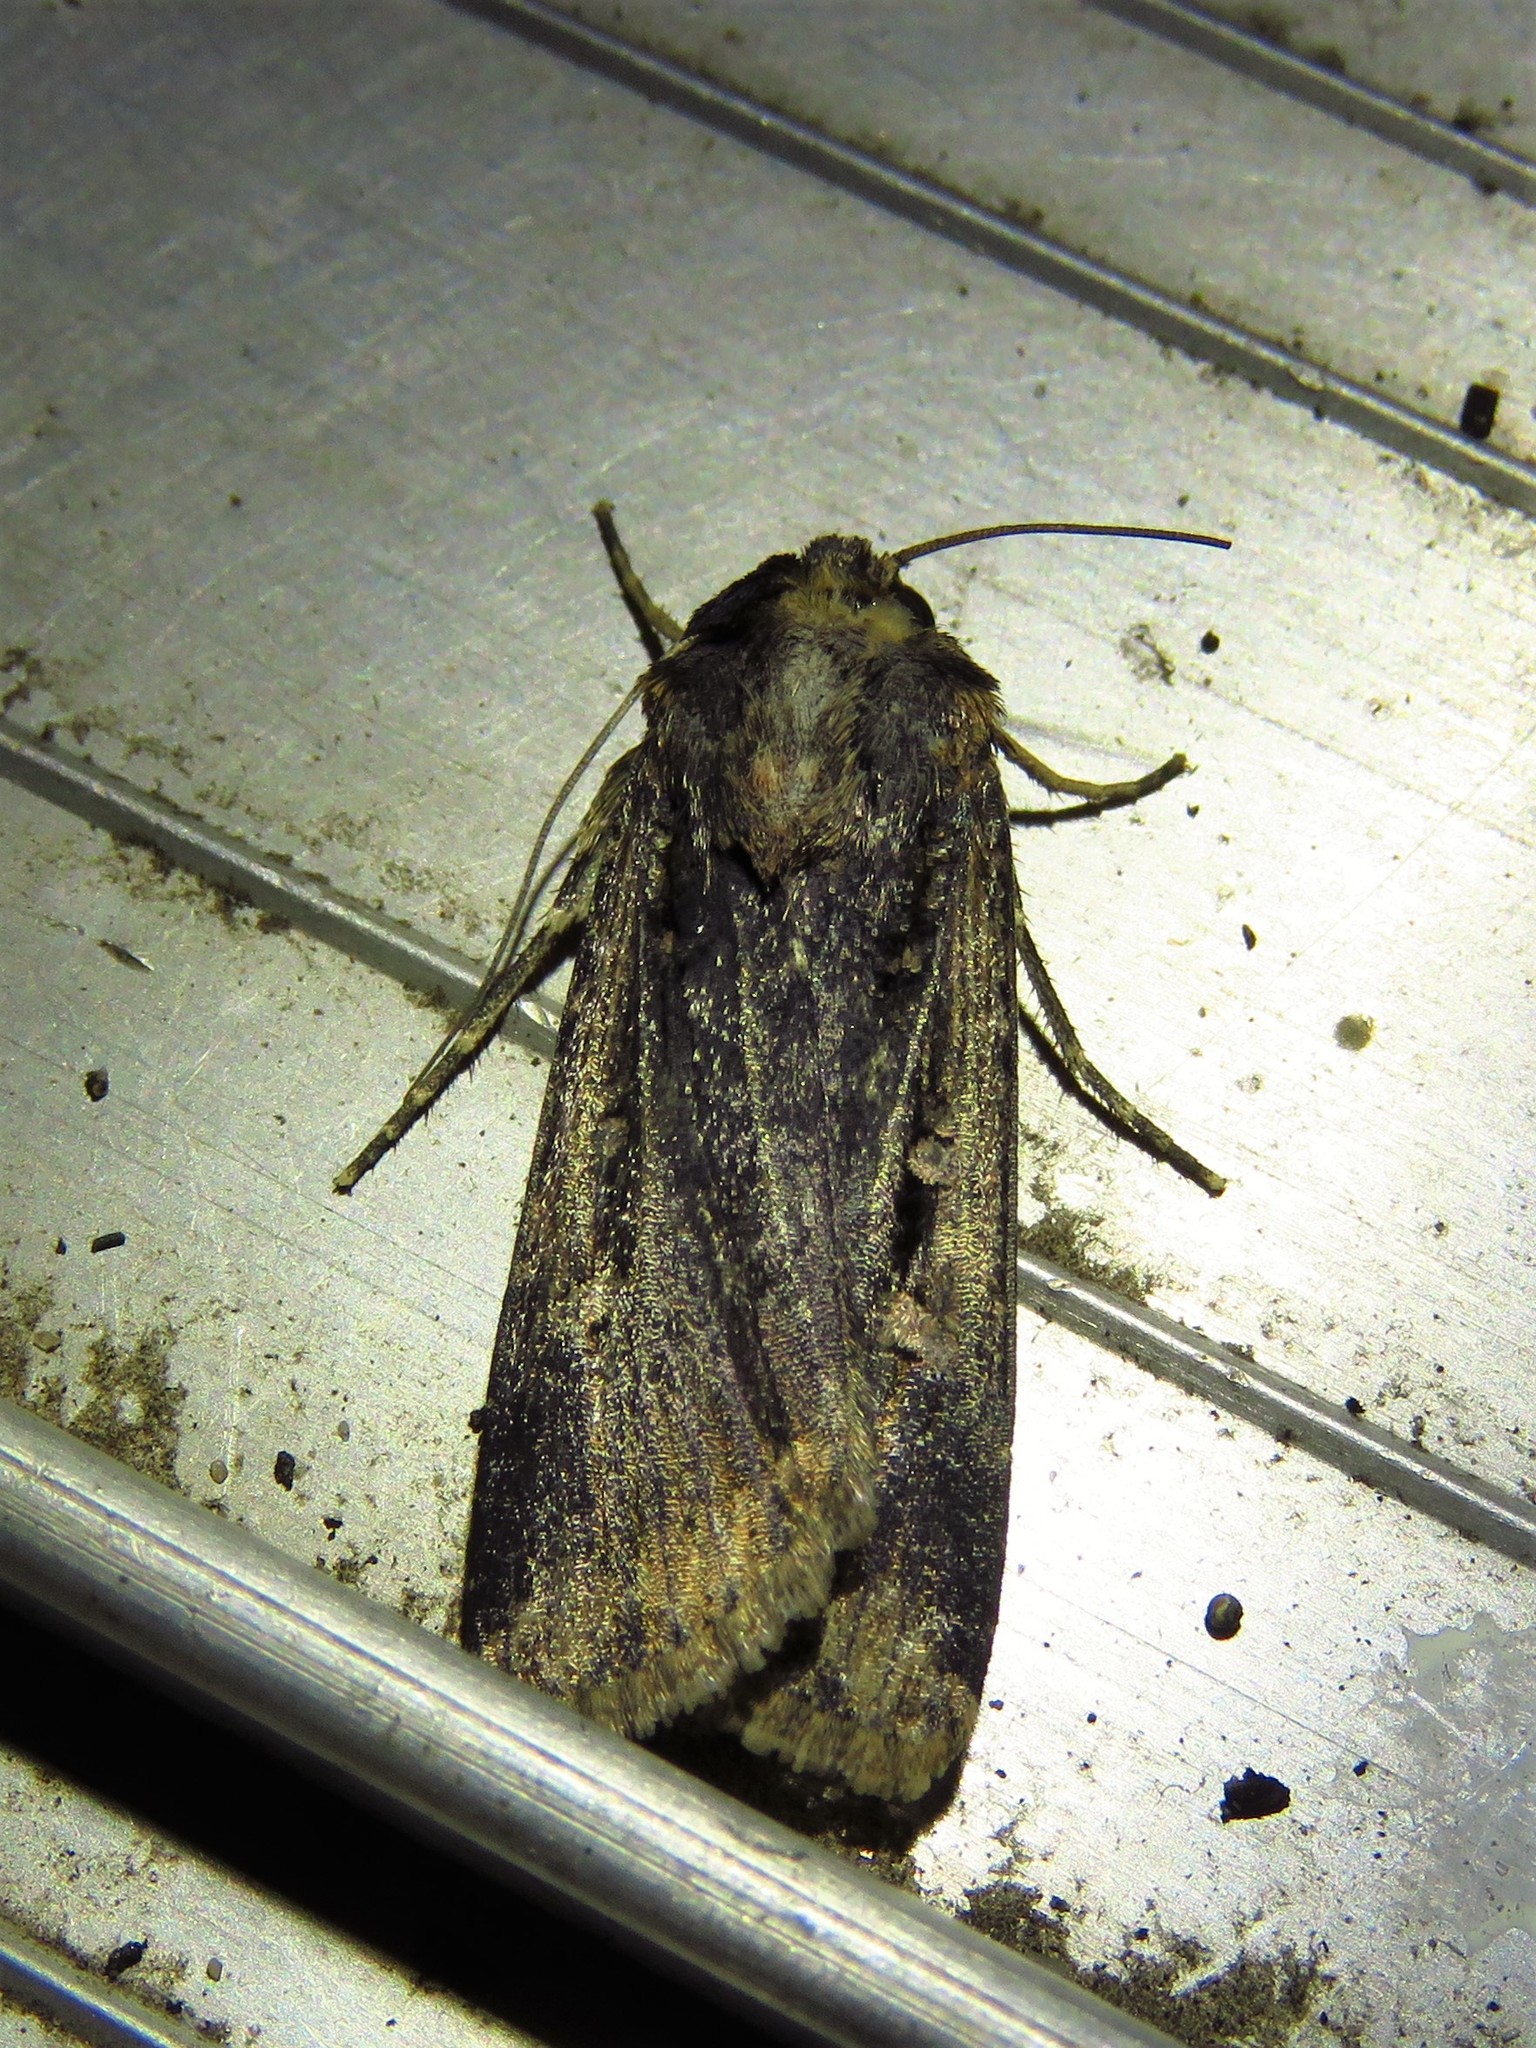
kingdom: Animalia
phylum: Arthropoda
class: Insecta
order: Lepidoptera
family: Noctuidae
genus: Feltia
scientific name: Feltia subterranea
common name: Granulate cutworm
